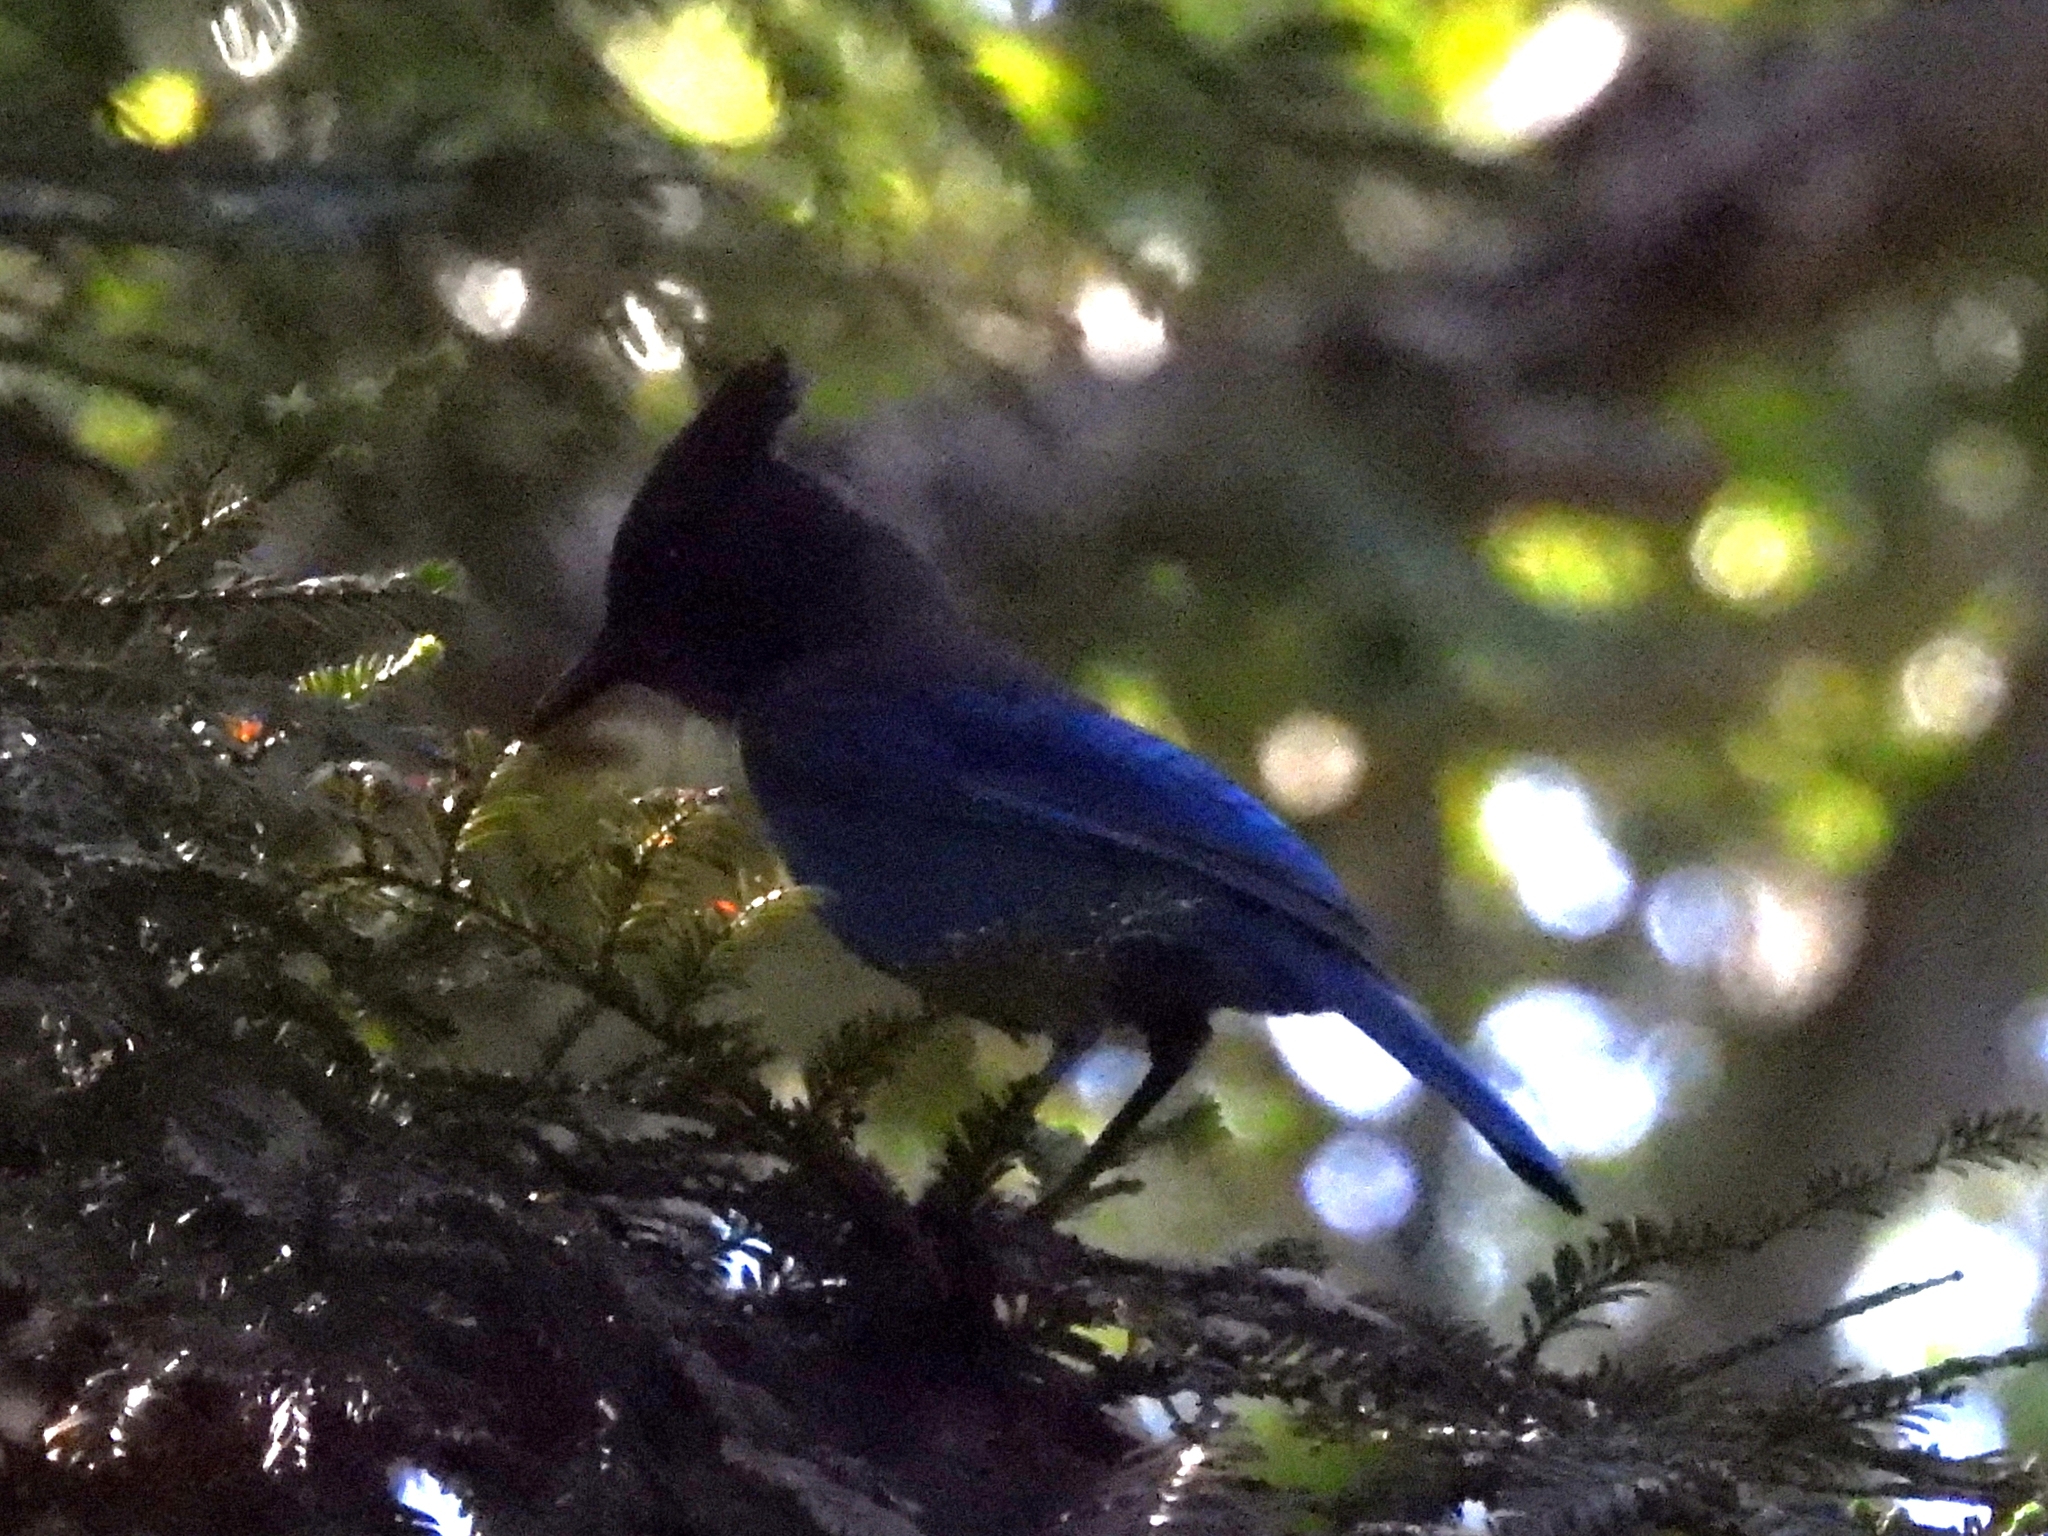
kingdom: Animalia
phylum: Chordata
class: Aves
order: Passeriformes
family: Corvidae
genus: Cyanocitta
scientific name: Cyanocitta stelleri
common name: Steller's jay
